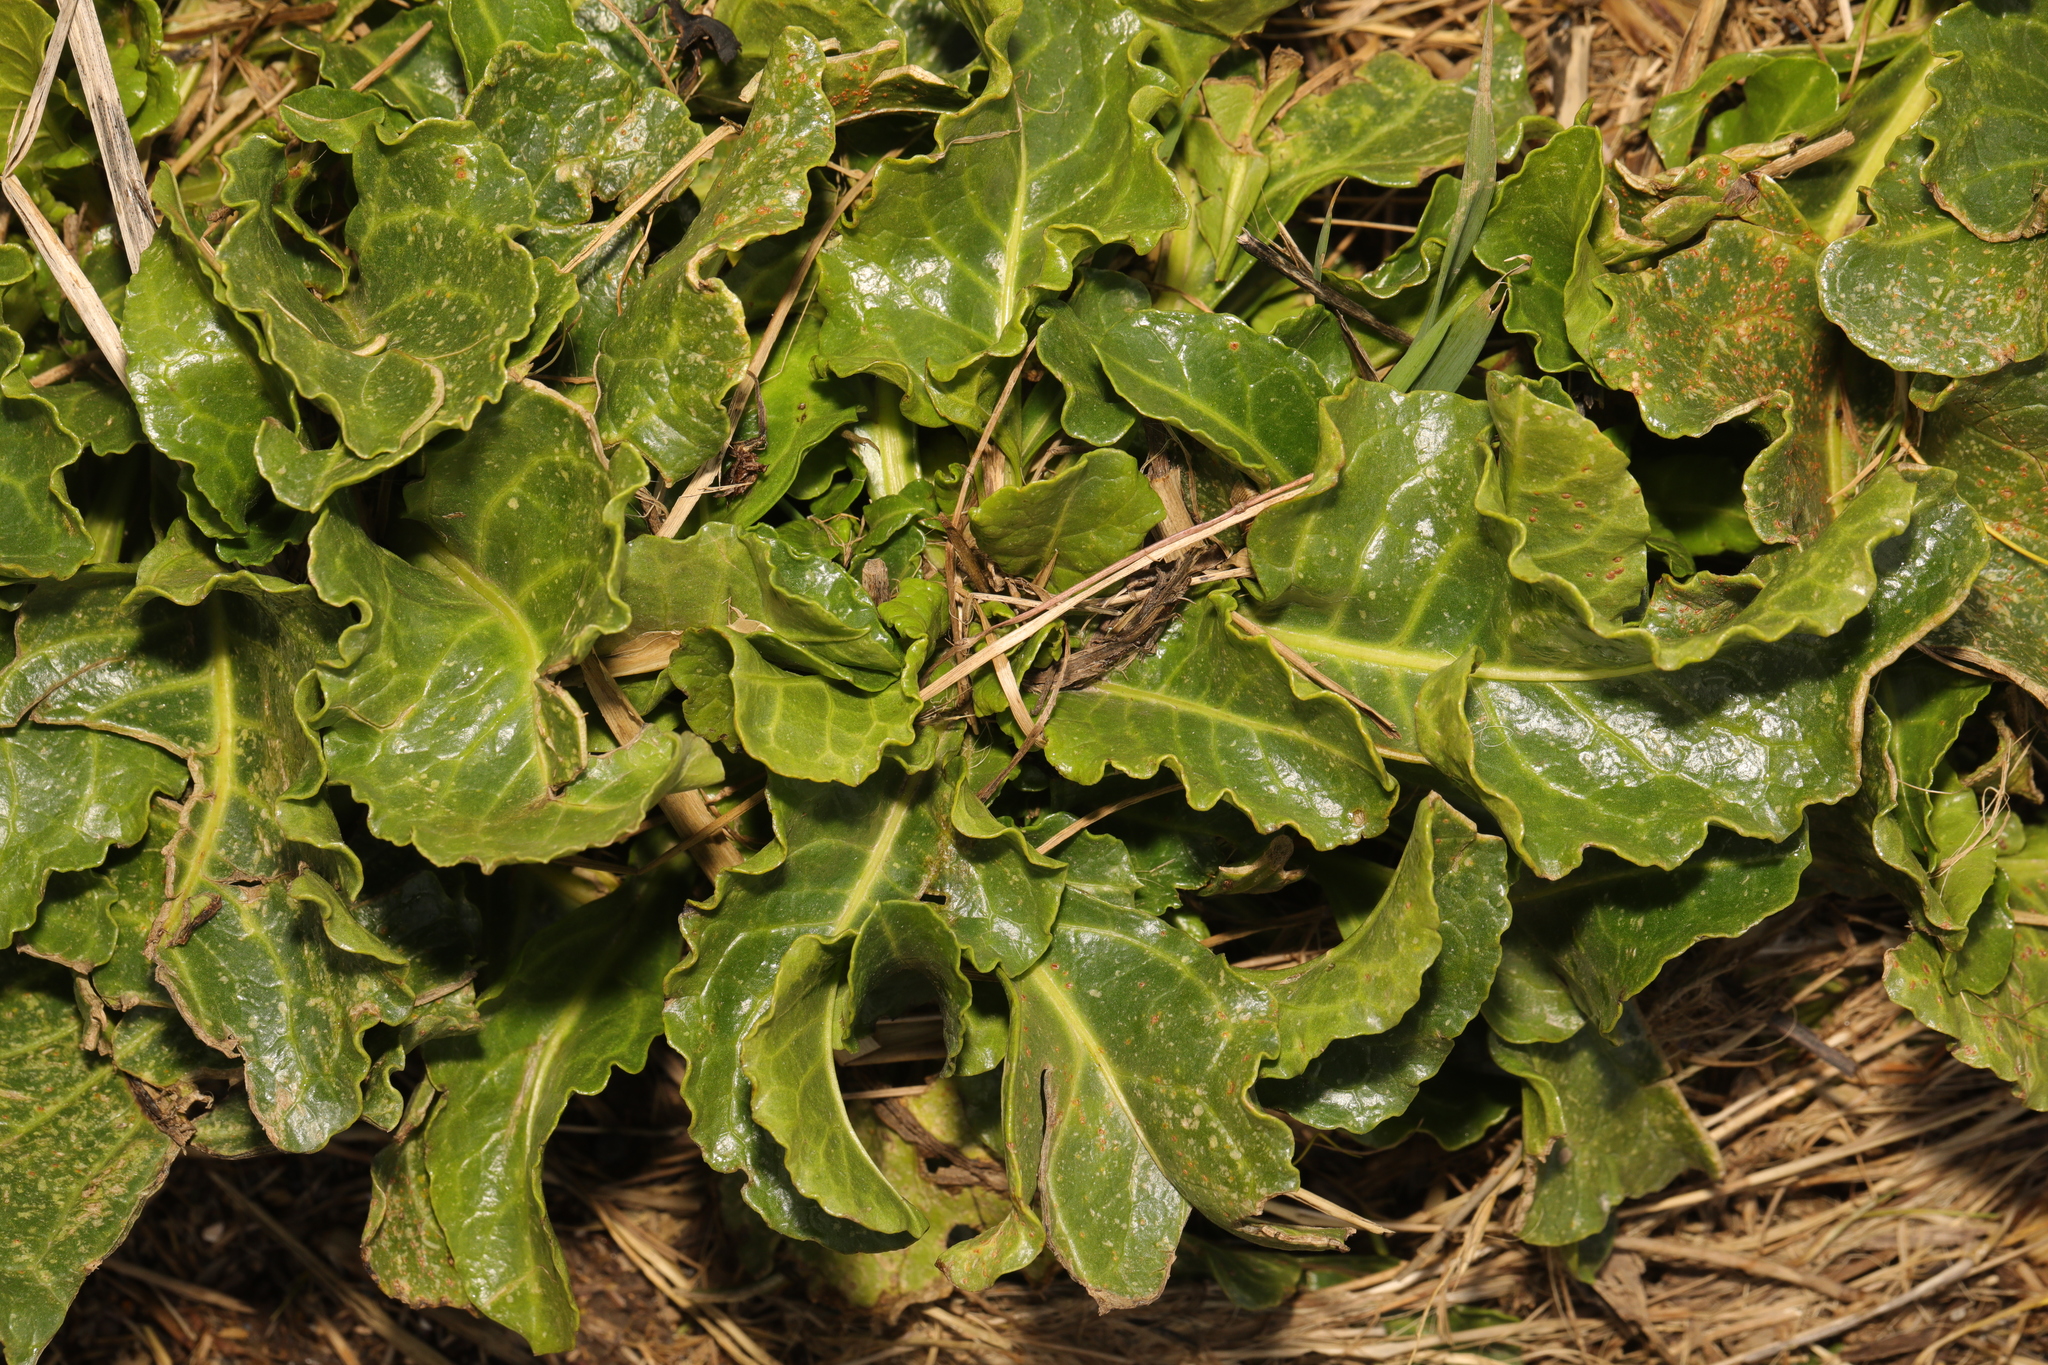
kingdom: Plantae
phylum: Tracheophyta
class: Magnoliopsida
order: Caryophyllales
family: Amaranthaceae
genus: Beta
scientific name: Beta vulgaris
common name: Beet
